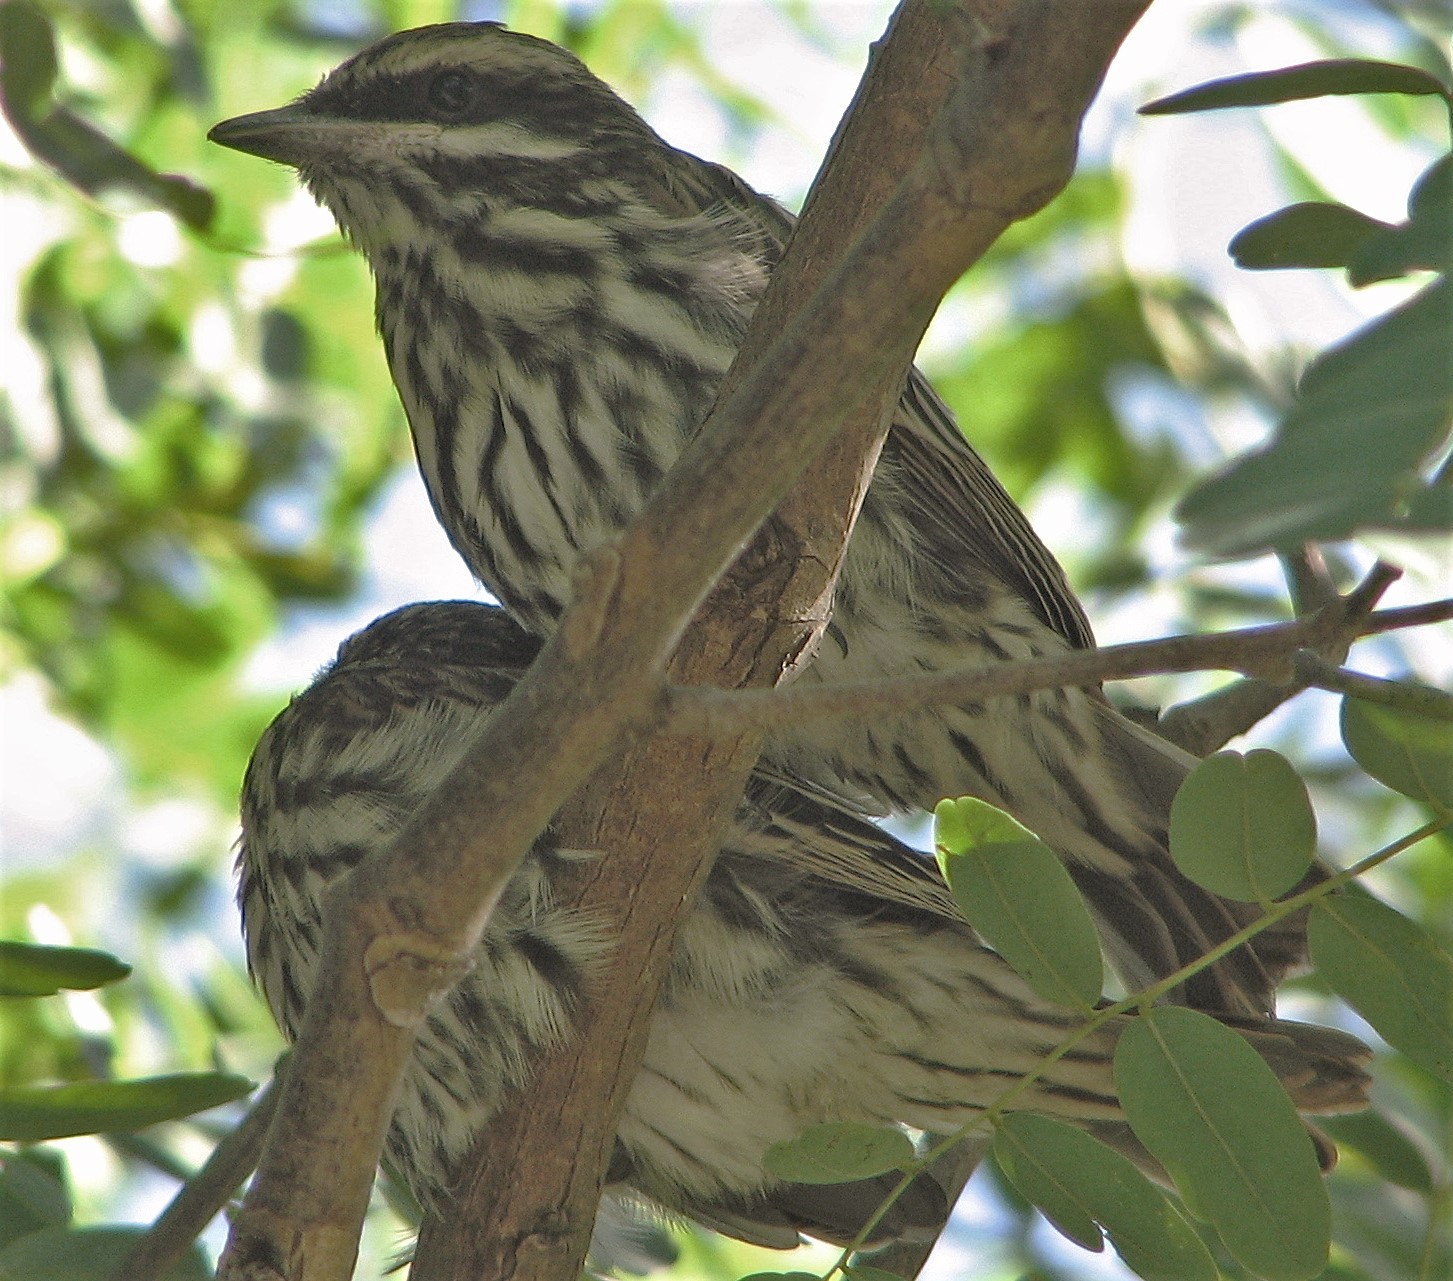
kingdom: Animalia
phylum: Chordata
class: Aves
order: Passeriformes
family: Tyrannidae
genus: Myiodynastes
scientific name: Myiodynastes maculatus
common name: Streaked flycatcher
